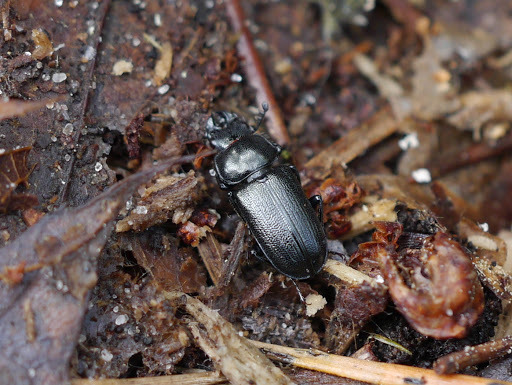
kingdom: Animalia
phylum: Arthropoda
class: Insecta
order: Coleoptera
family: Lucanidae
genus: Platycerus
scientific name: Platycerus quercus
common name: Oak stag beetle
